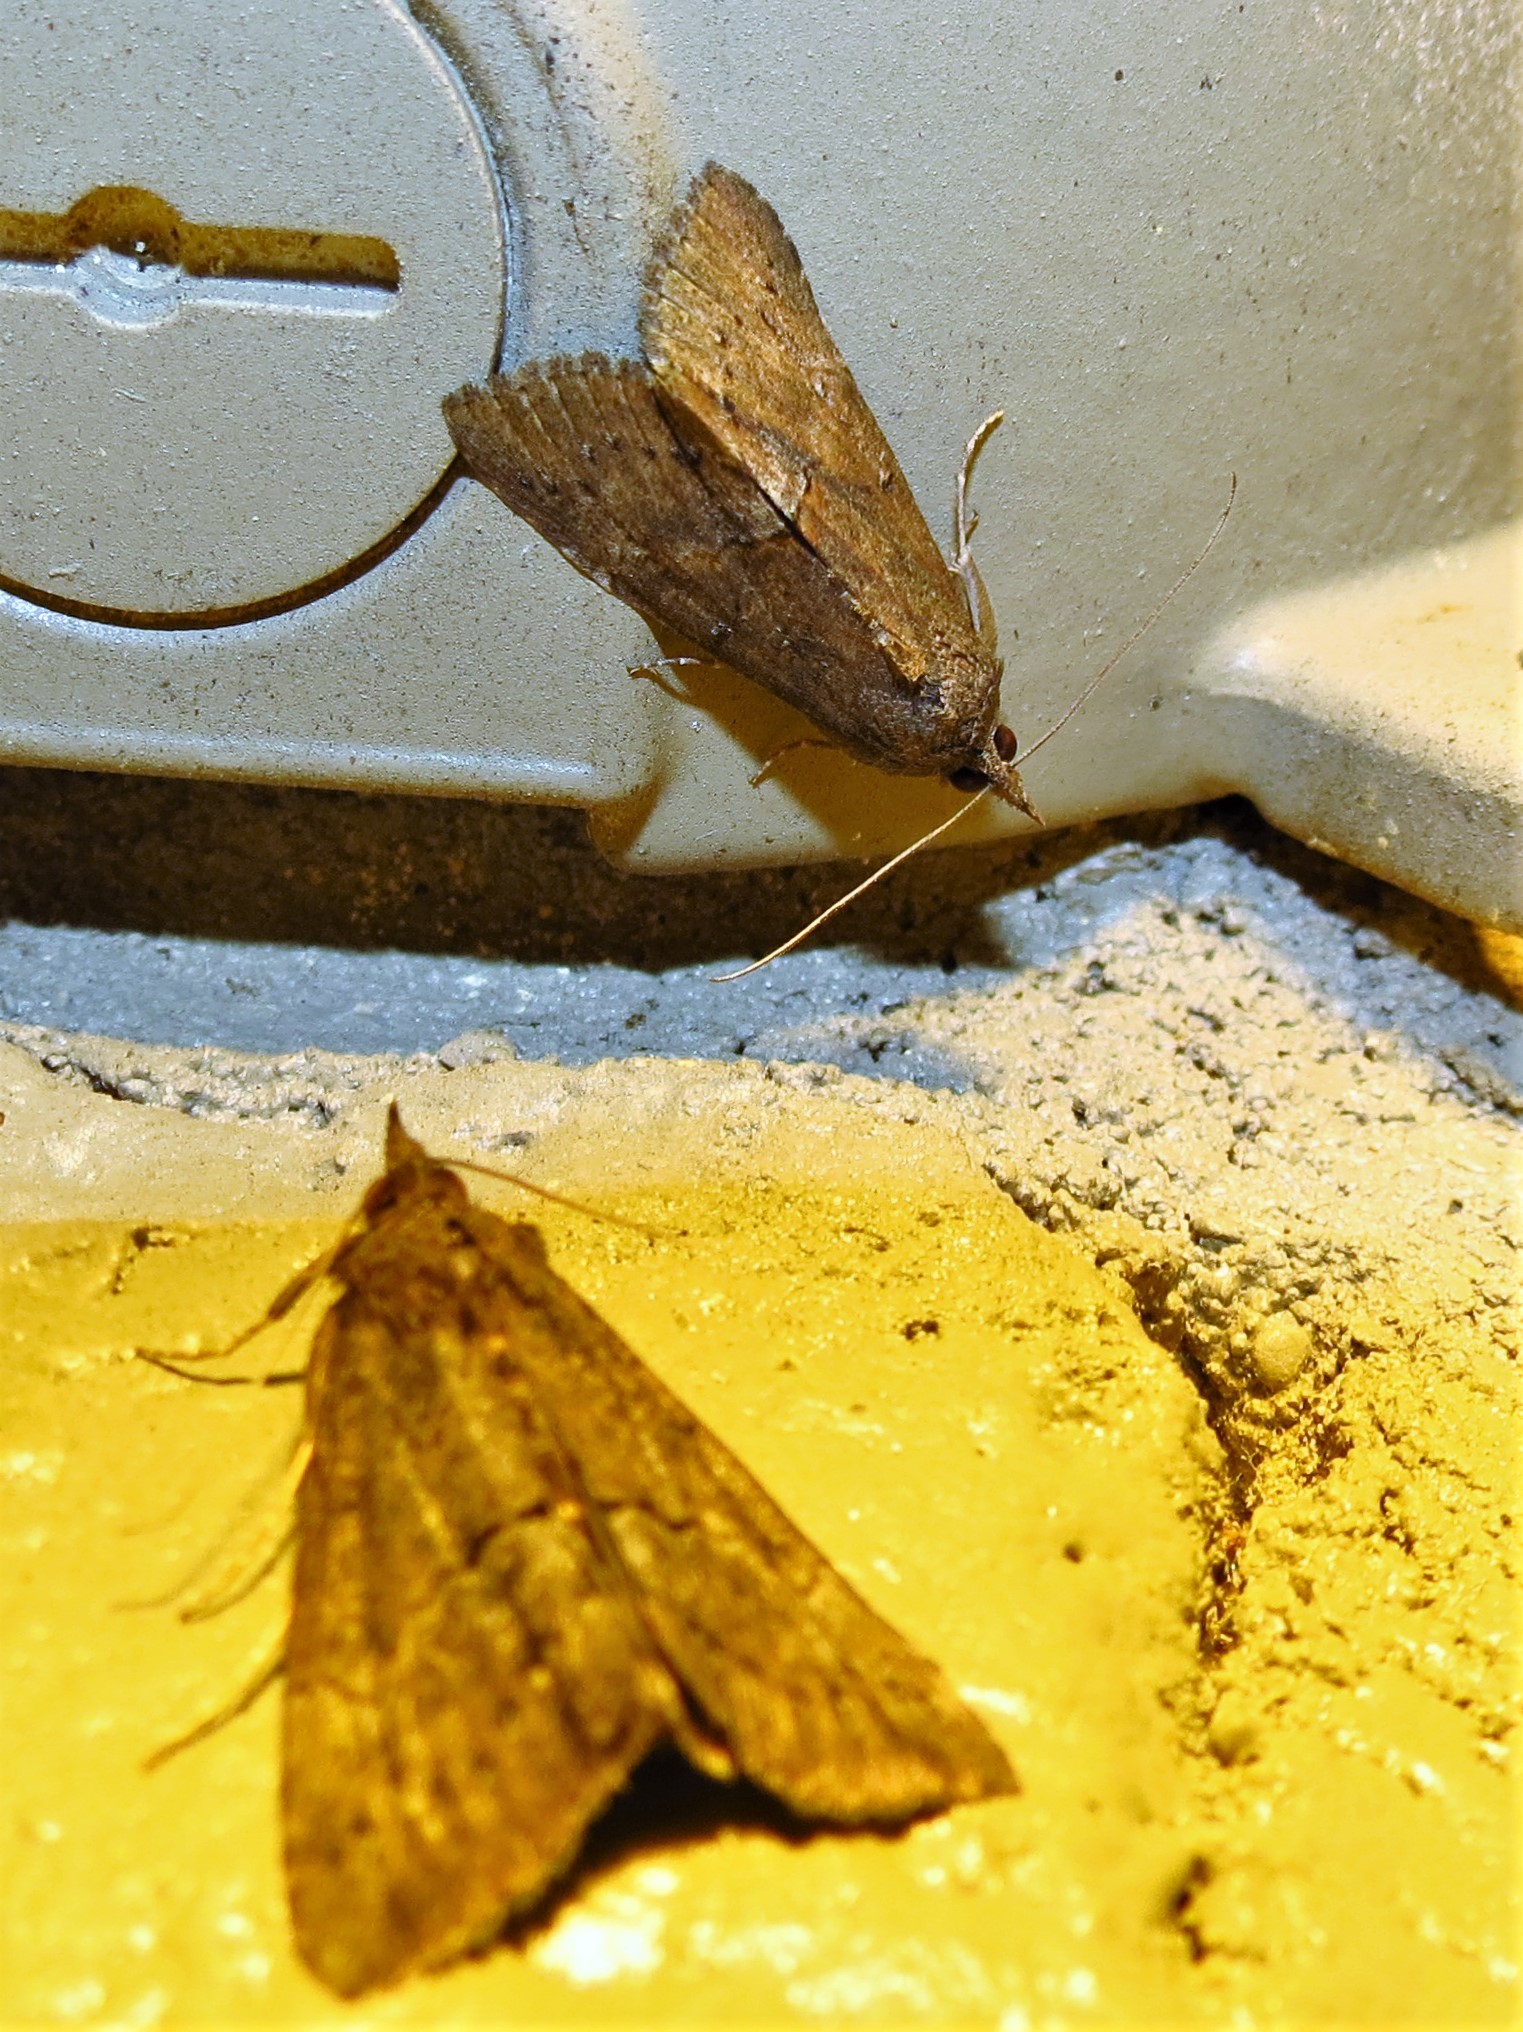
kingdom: Animalia
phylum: Arthropoda
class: Insecta
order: Lepidoptera
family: Erebidae
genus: Hypena
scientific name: Hypena scabra
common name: Green cloverworm
